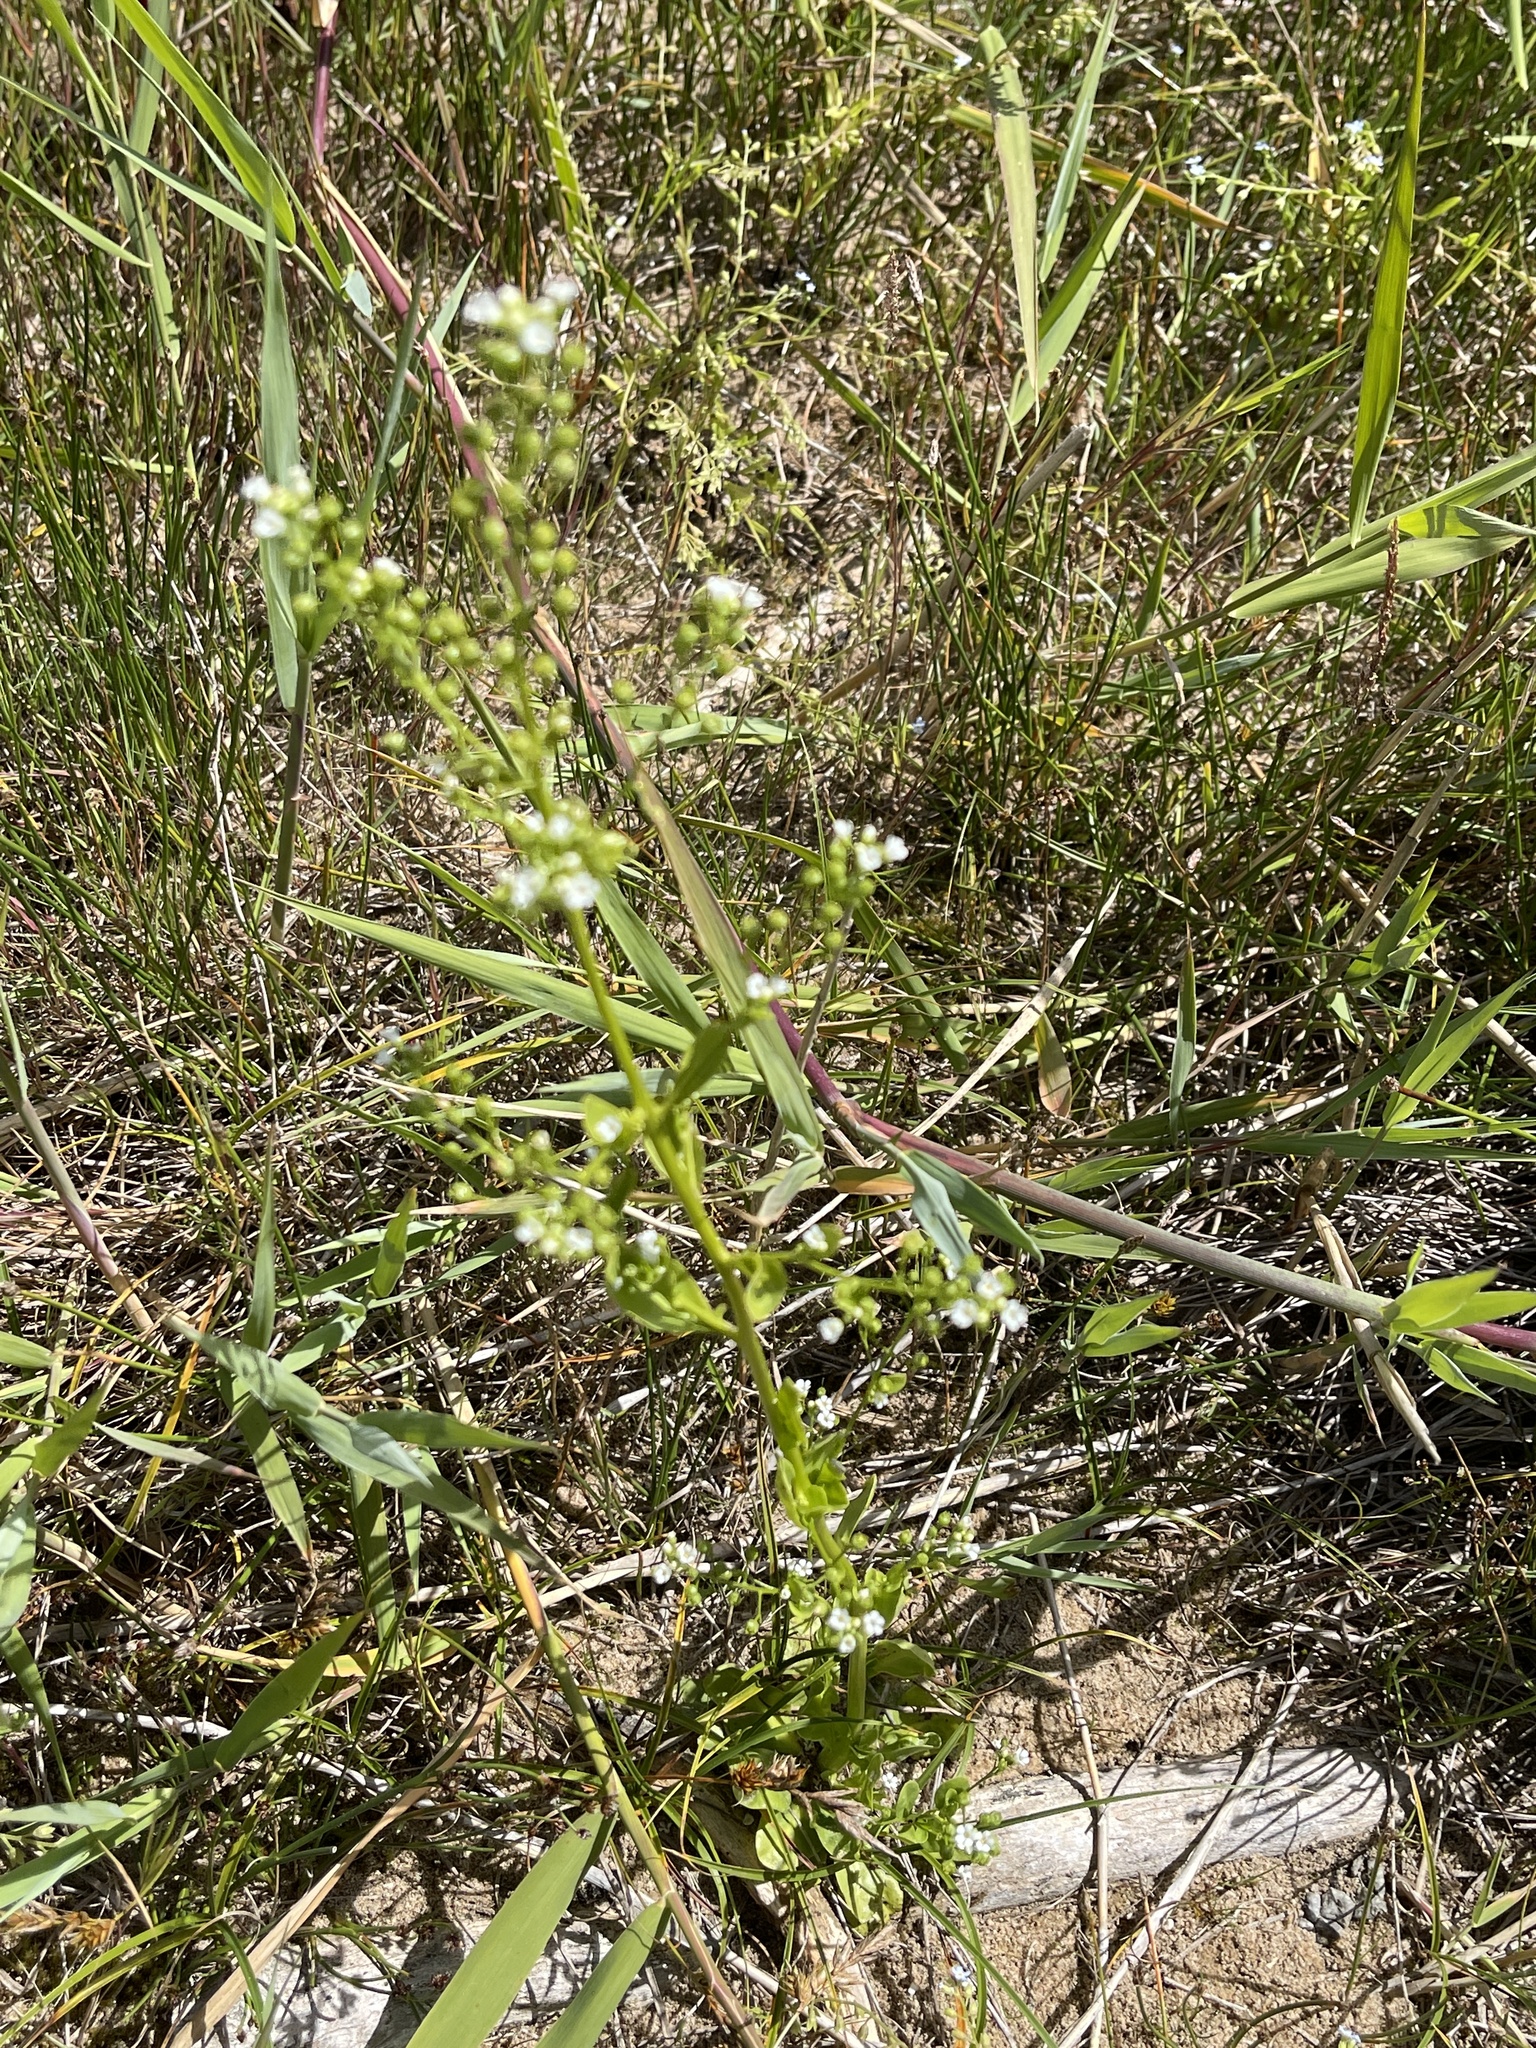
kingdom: Plantae
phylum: Tracheophyta
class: Magnoliopsida
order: Ericales
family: Primulaceae
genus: Samolus
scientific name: Samolus valerandi
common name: Brookweed
